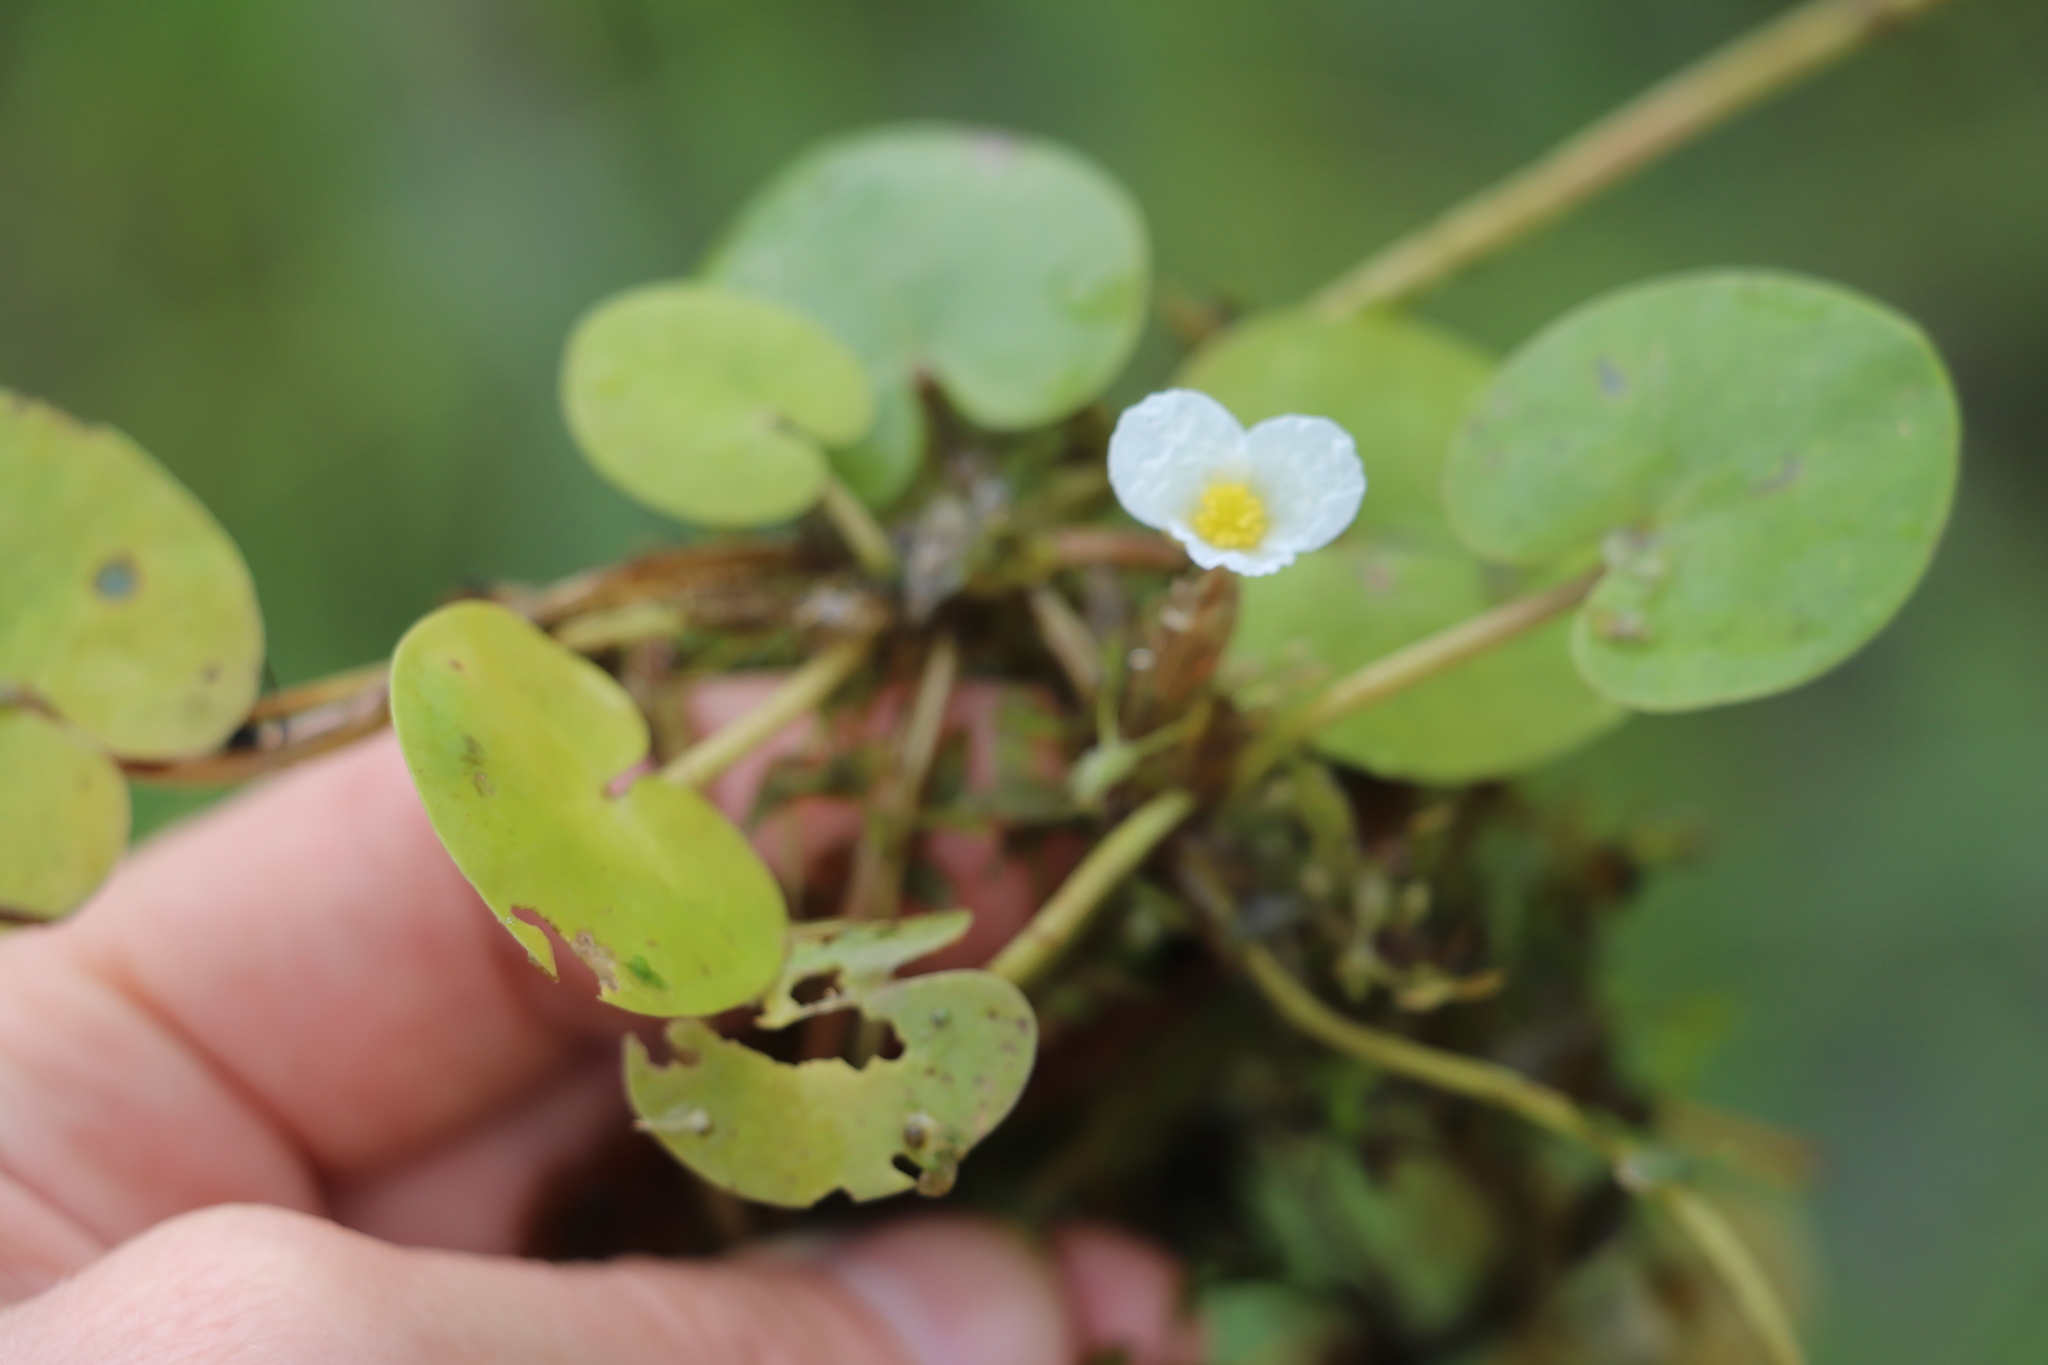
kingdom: Plantae
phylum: Tracheophyta
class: Liliopsida
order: Alismatales
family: Hydrocharitaceae
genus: Hydrocharis
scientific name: Hydrocharis morsus-ranae
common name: Frogbit
